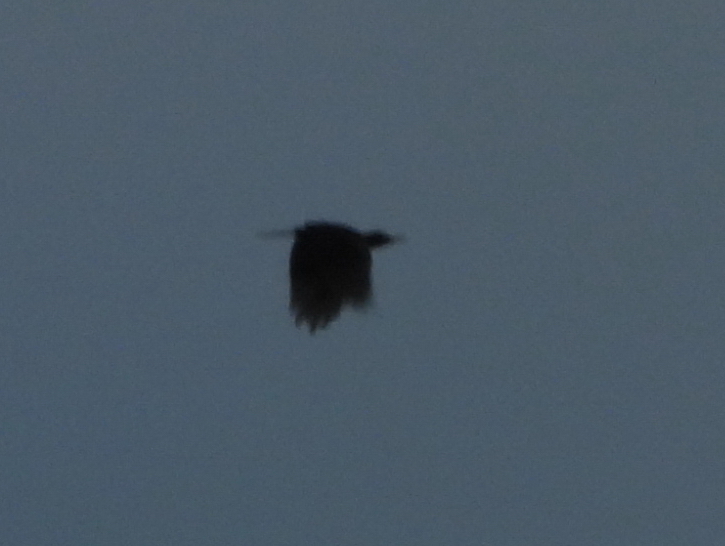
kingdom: Animalia
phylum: Chordata
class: Aves
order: Piciformes
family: Picidae
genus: Dryocopus
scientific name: Dryocopus martius
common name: Black woodpecker
